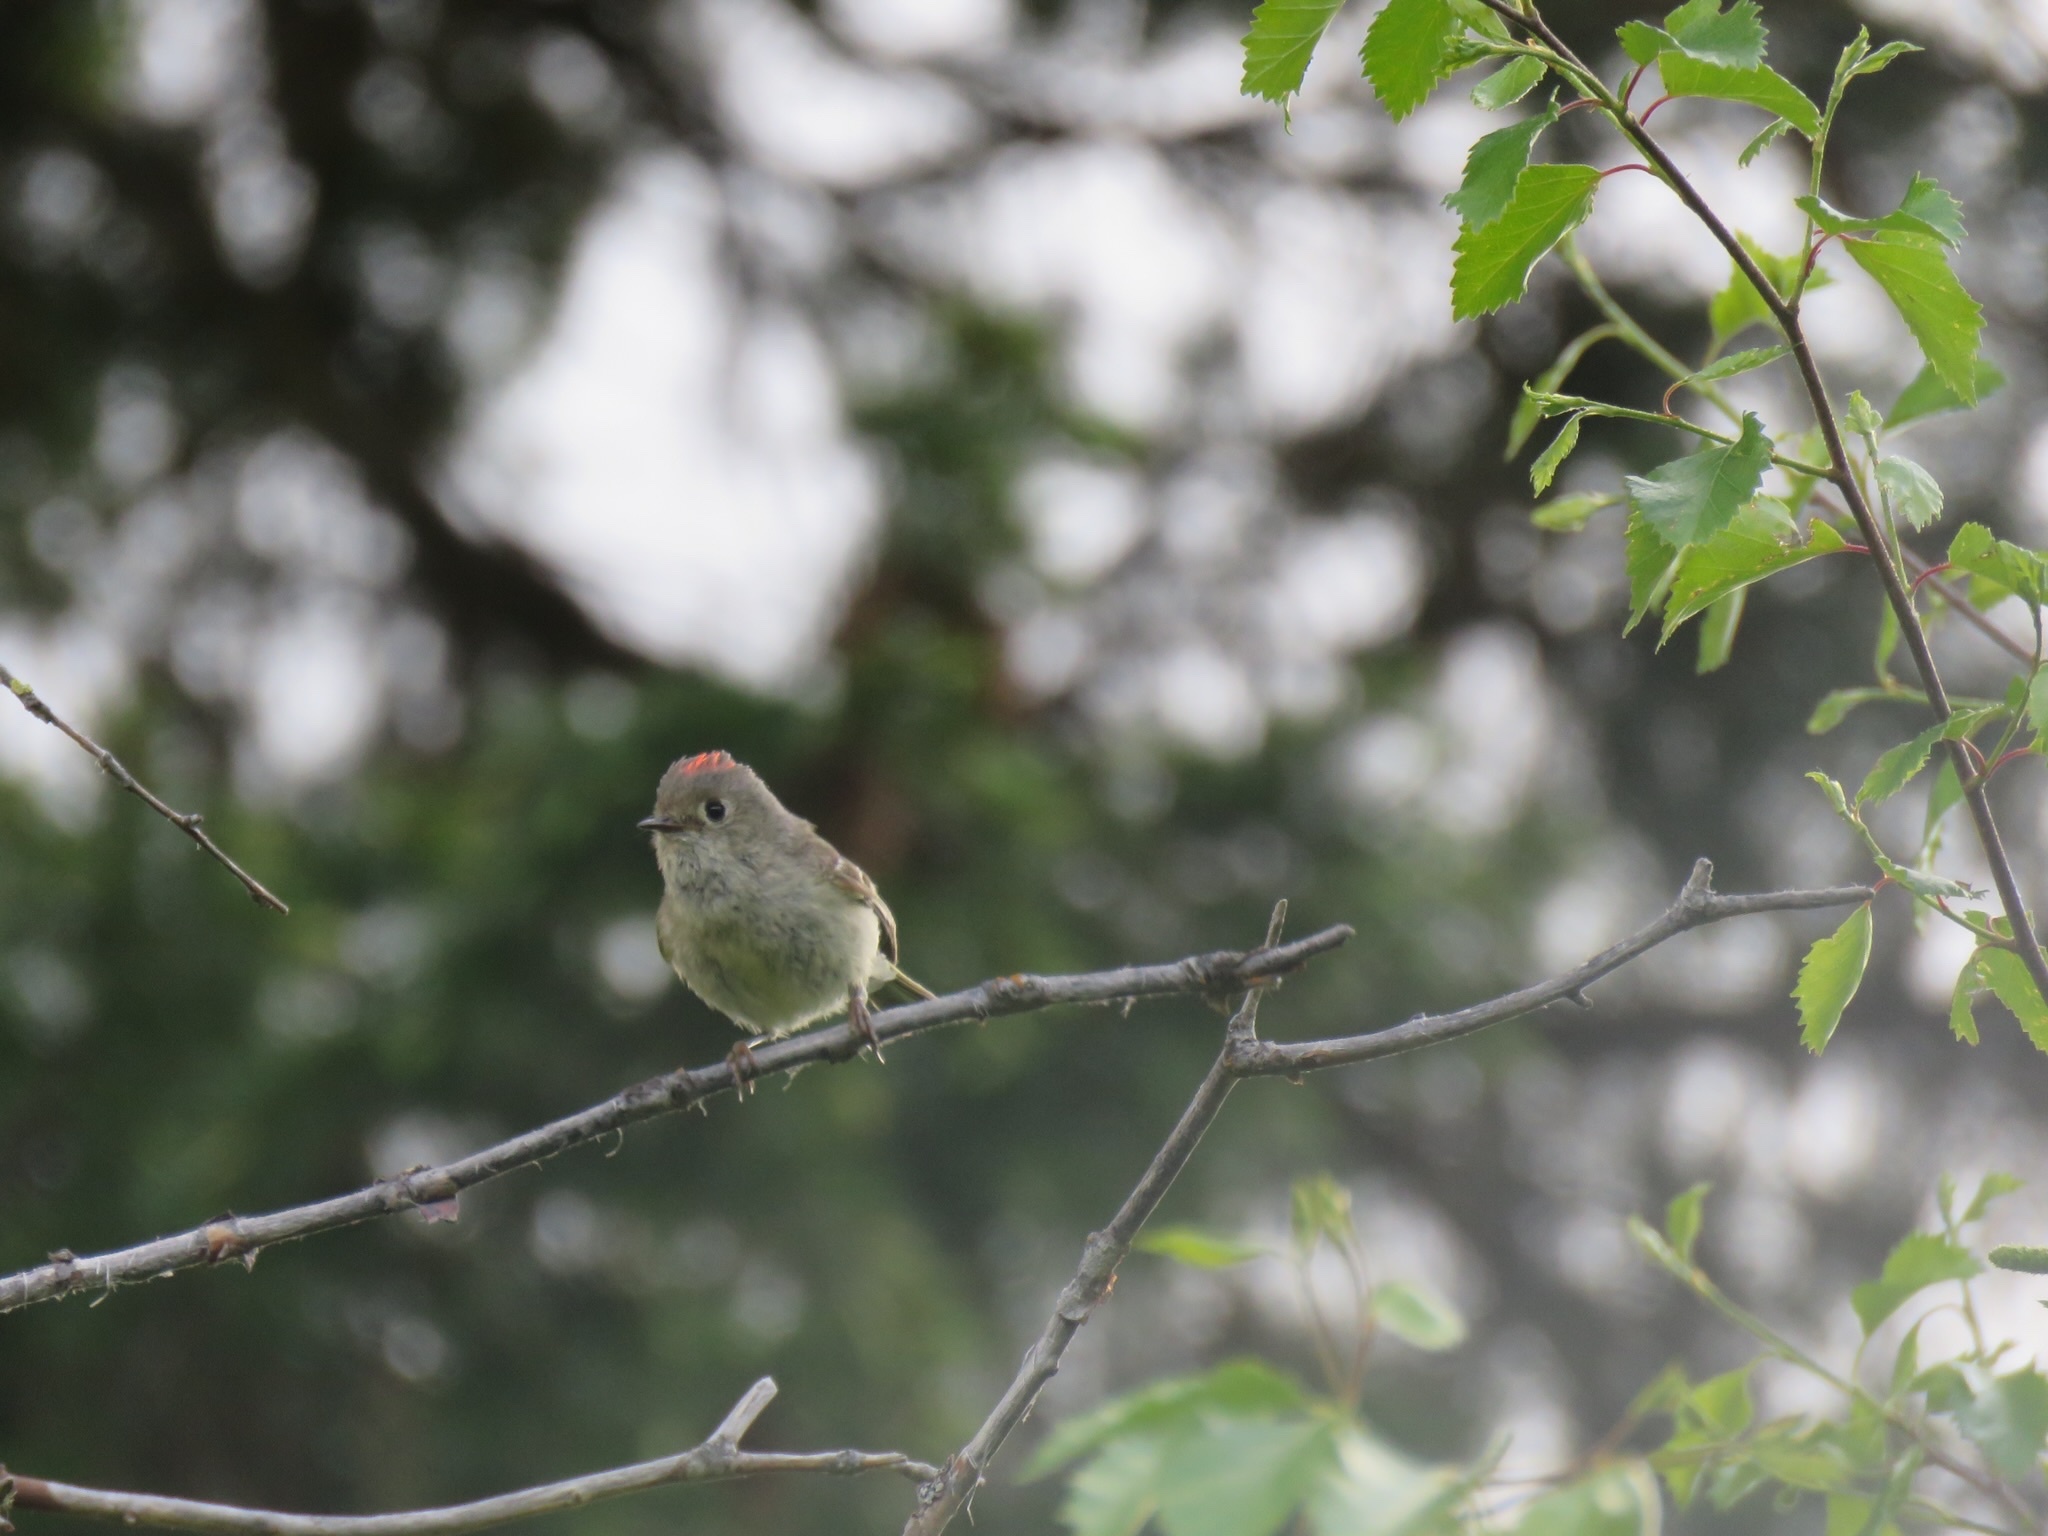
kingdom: Animalia
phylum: Chordata
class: Aves
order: Passeriformes
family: Regulidae
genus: Regulus
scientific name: Regulus calendula
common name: Ruby-crowned kinglet
